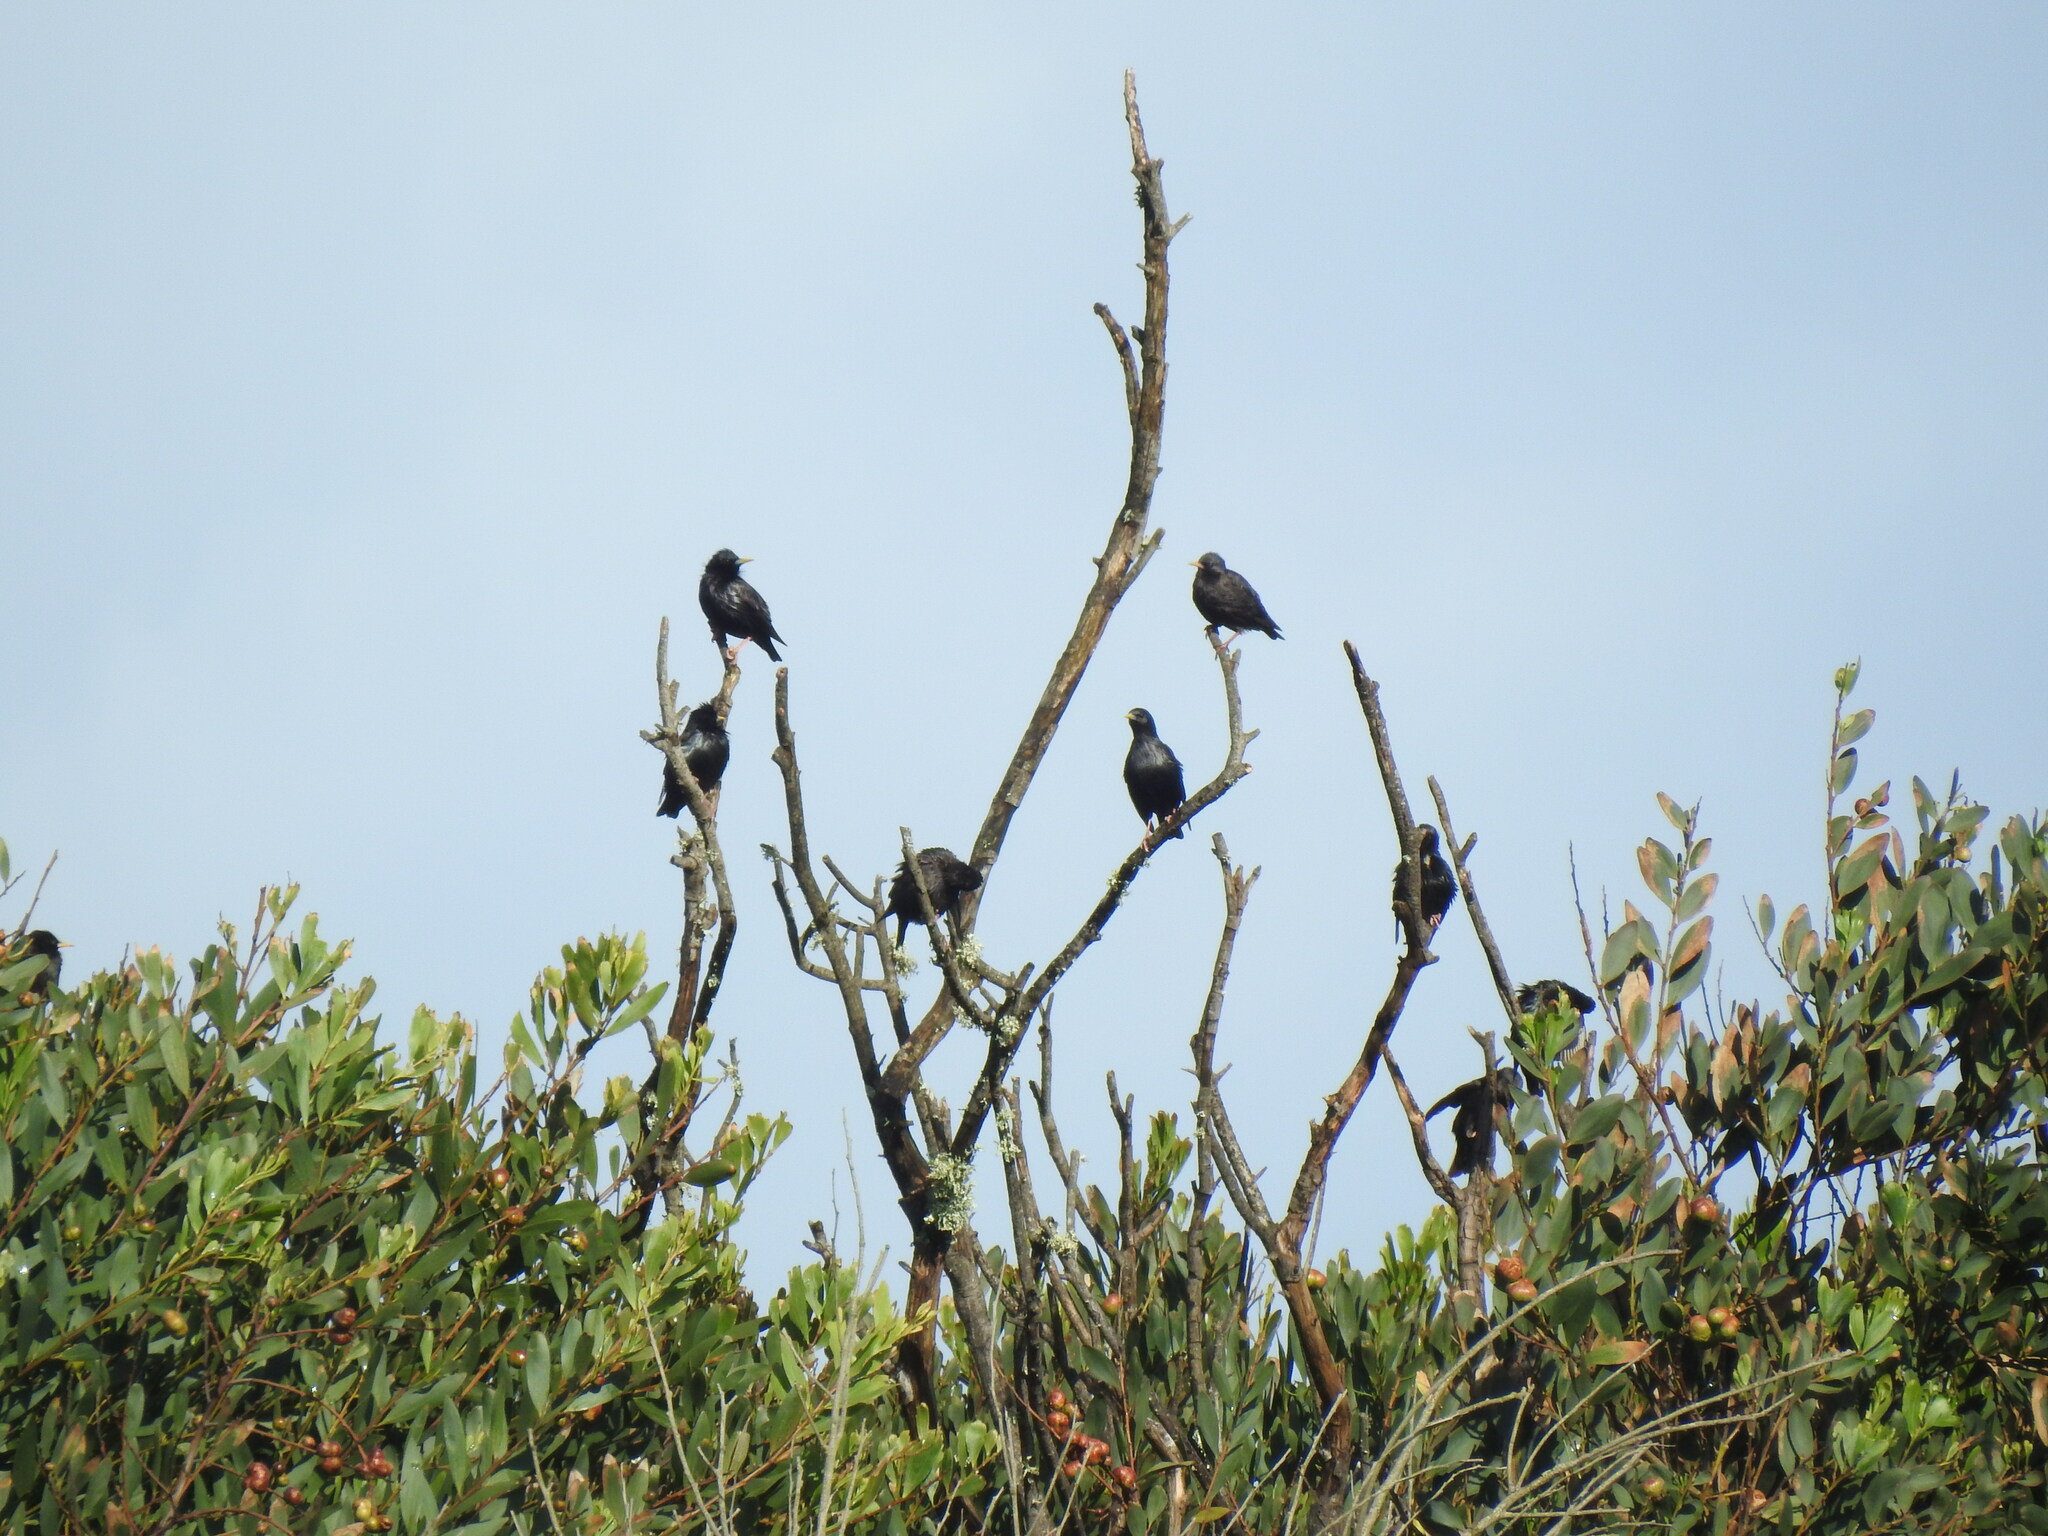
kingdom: Animalia
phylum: Chordata
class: Aves
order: Passeriformes
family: Sturnidae
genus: Sturnus
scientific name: Sturnus unicolor
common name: Spotless starling
